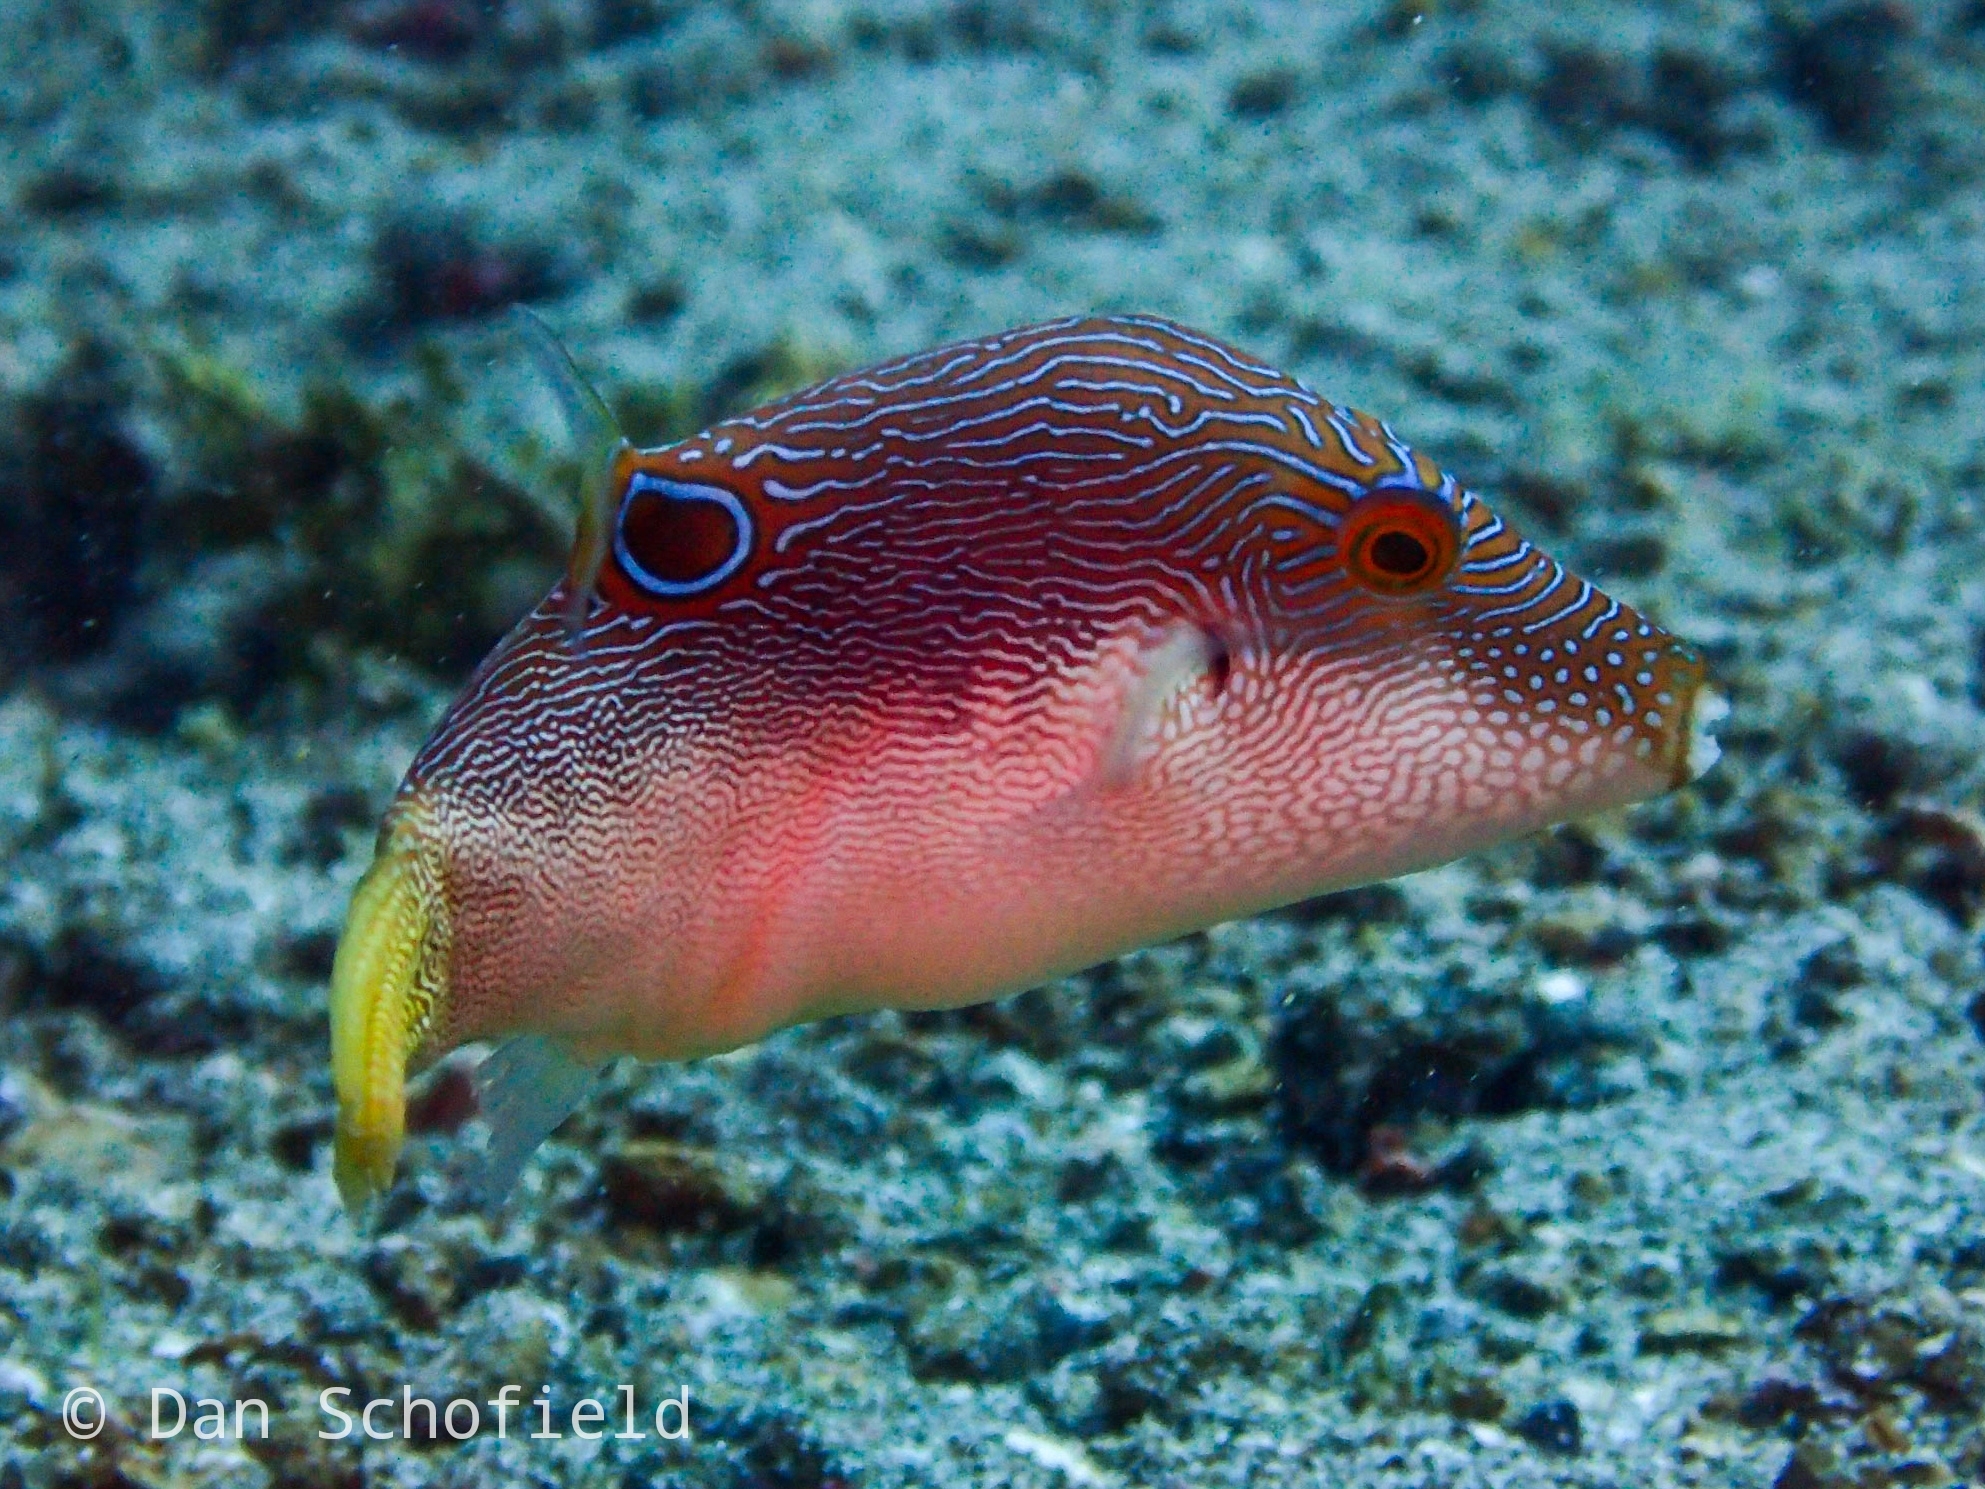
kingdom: Animalia
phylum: Chordata
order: Tetraodontiformes
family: Tetraodontidae
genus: Canthigaster
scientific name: Canthigaster compressa
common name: Compressed toby
